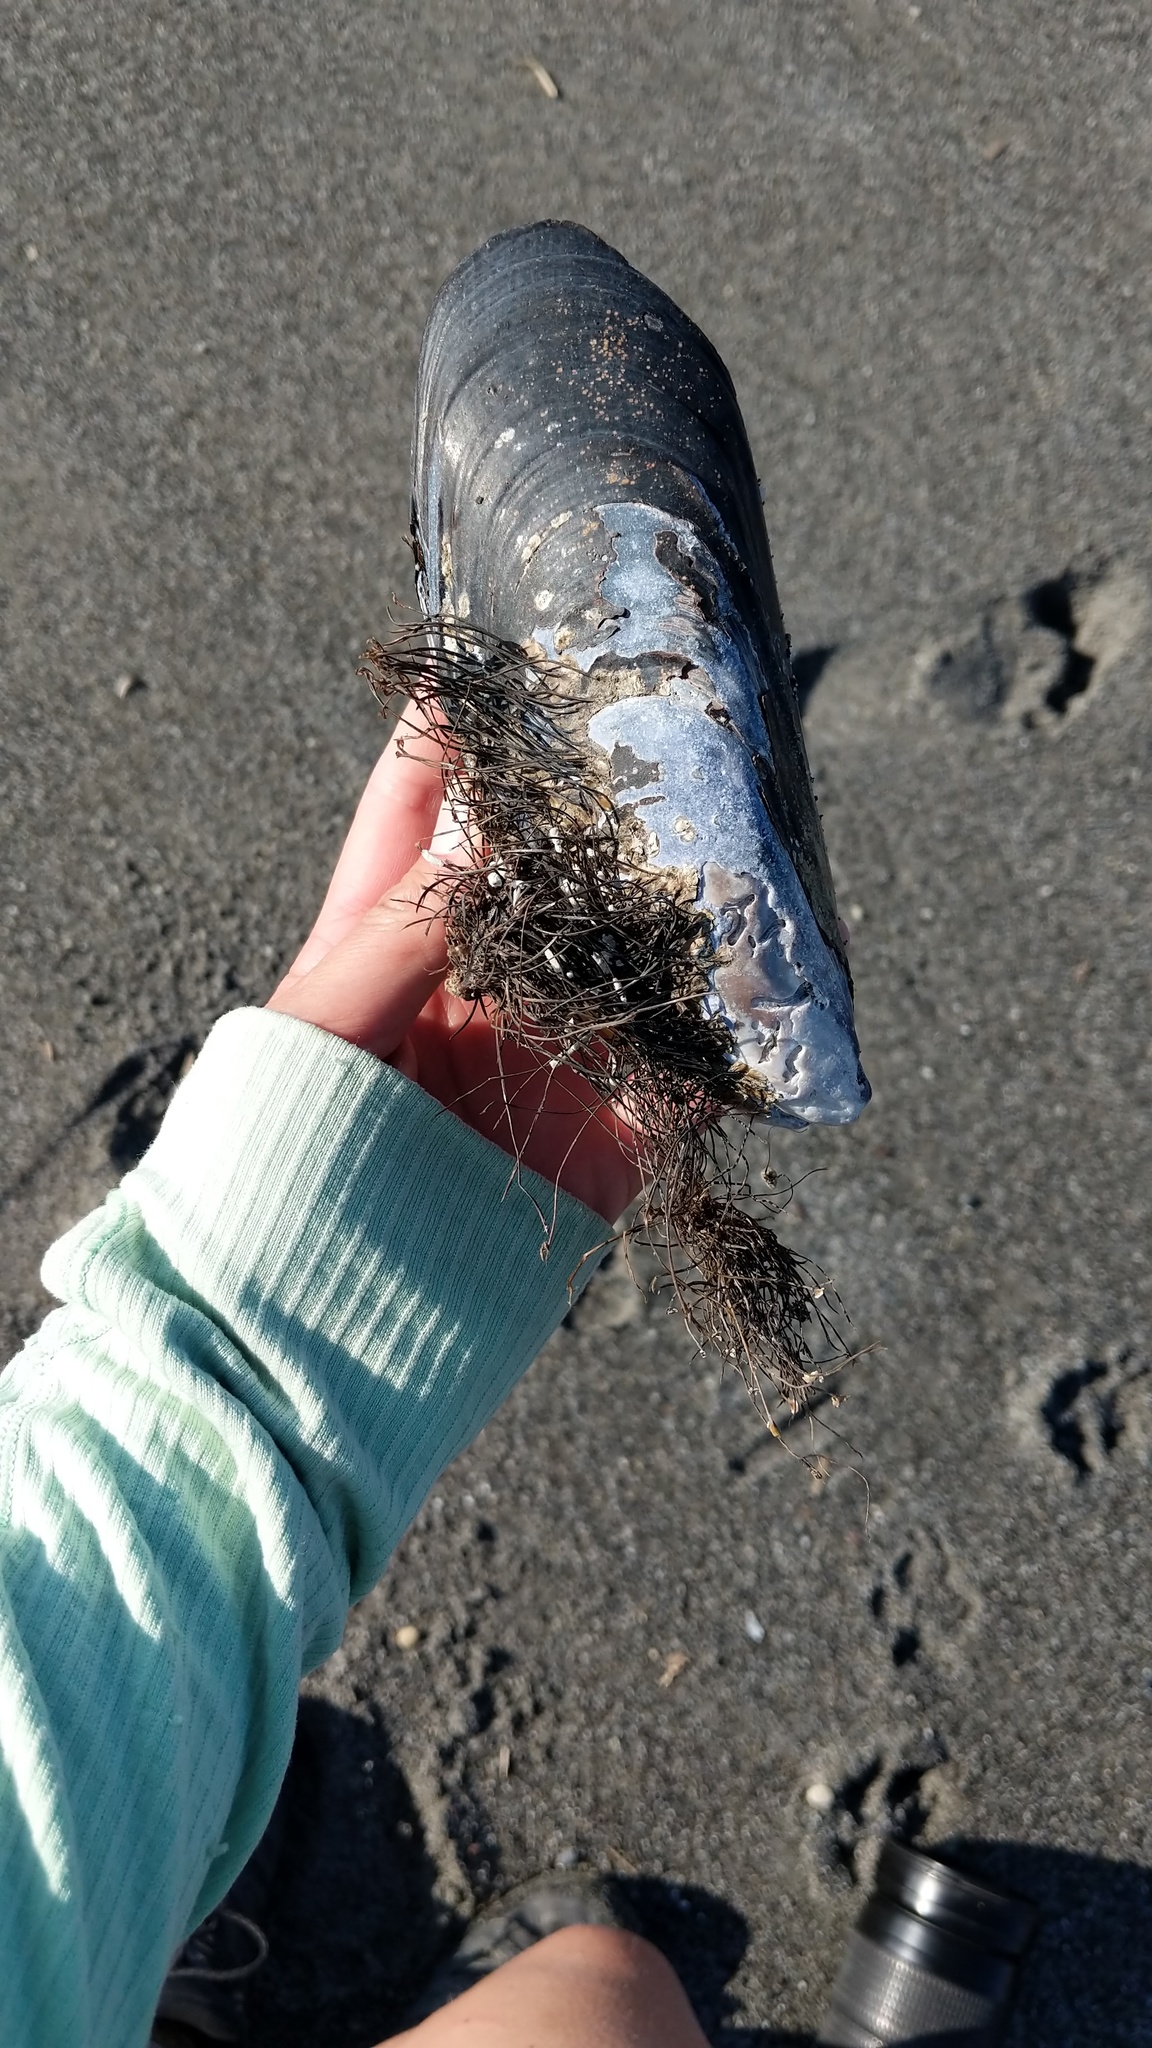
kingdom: Animalia
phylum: Mollusca
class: Bivalvia
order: Mytilida
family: Mytilidae
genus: Mytilus
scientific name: Mytilus californianus
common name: California mussel
